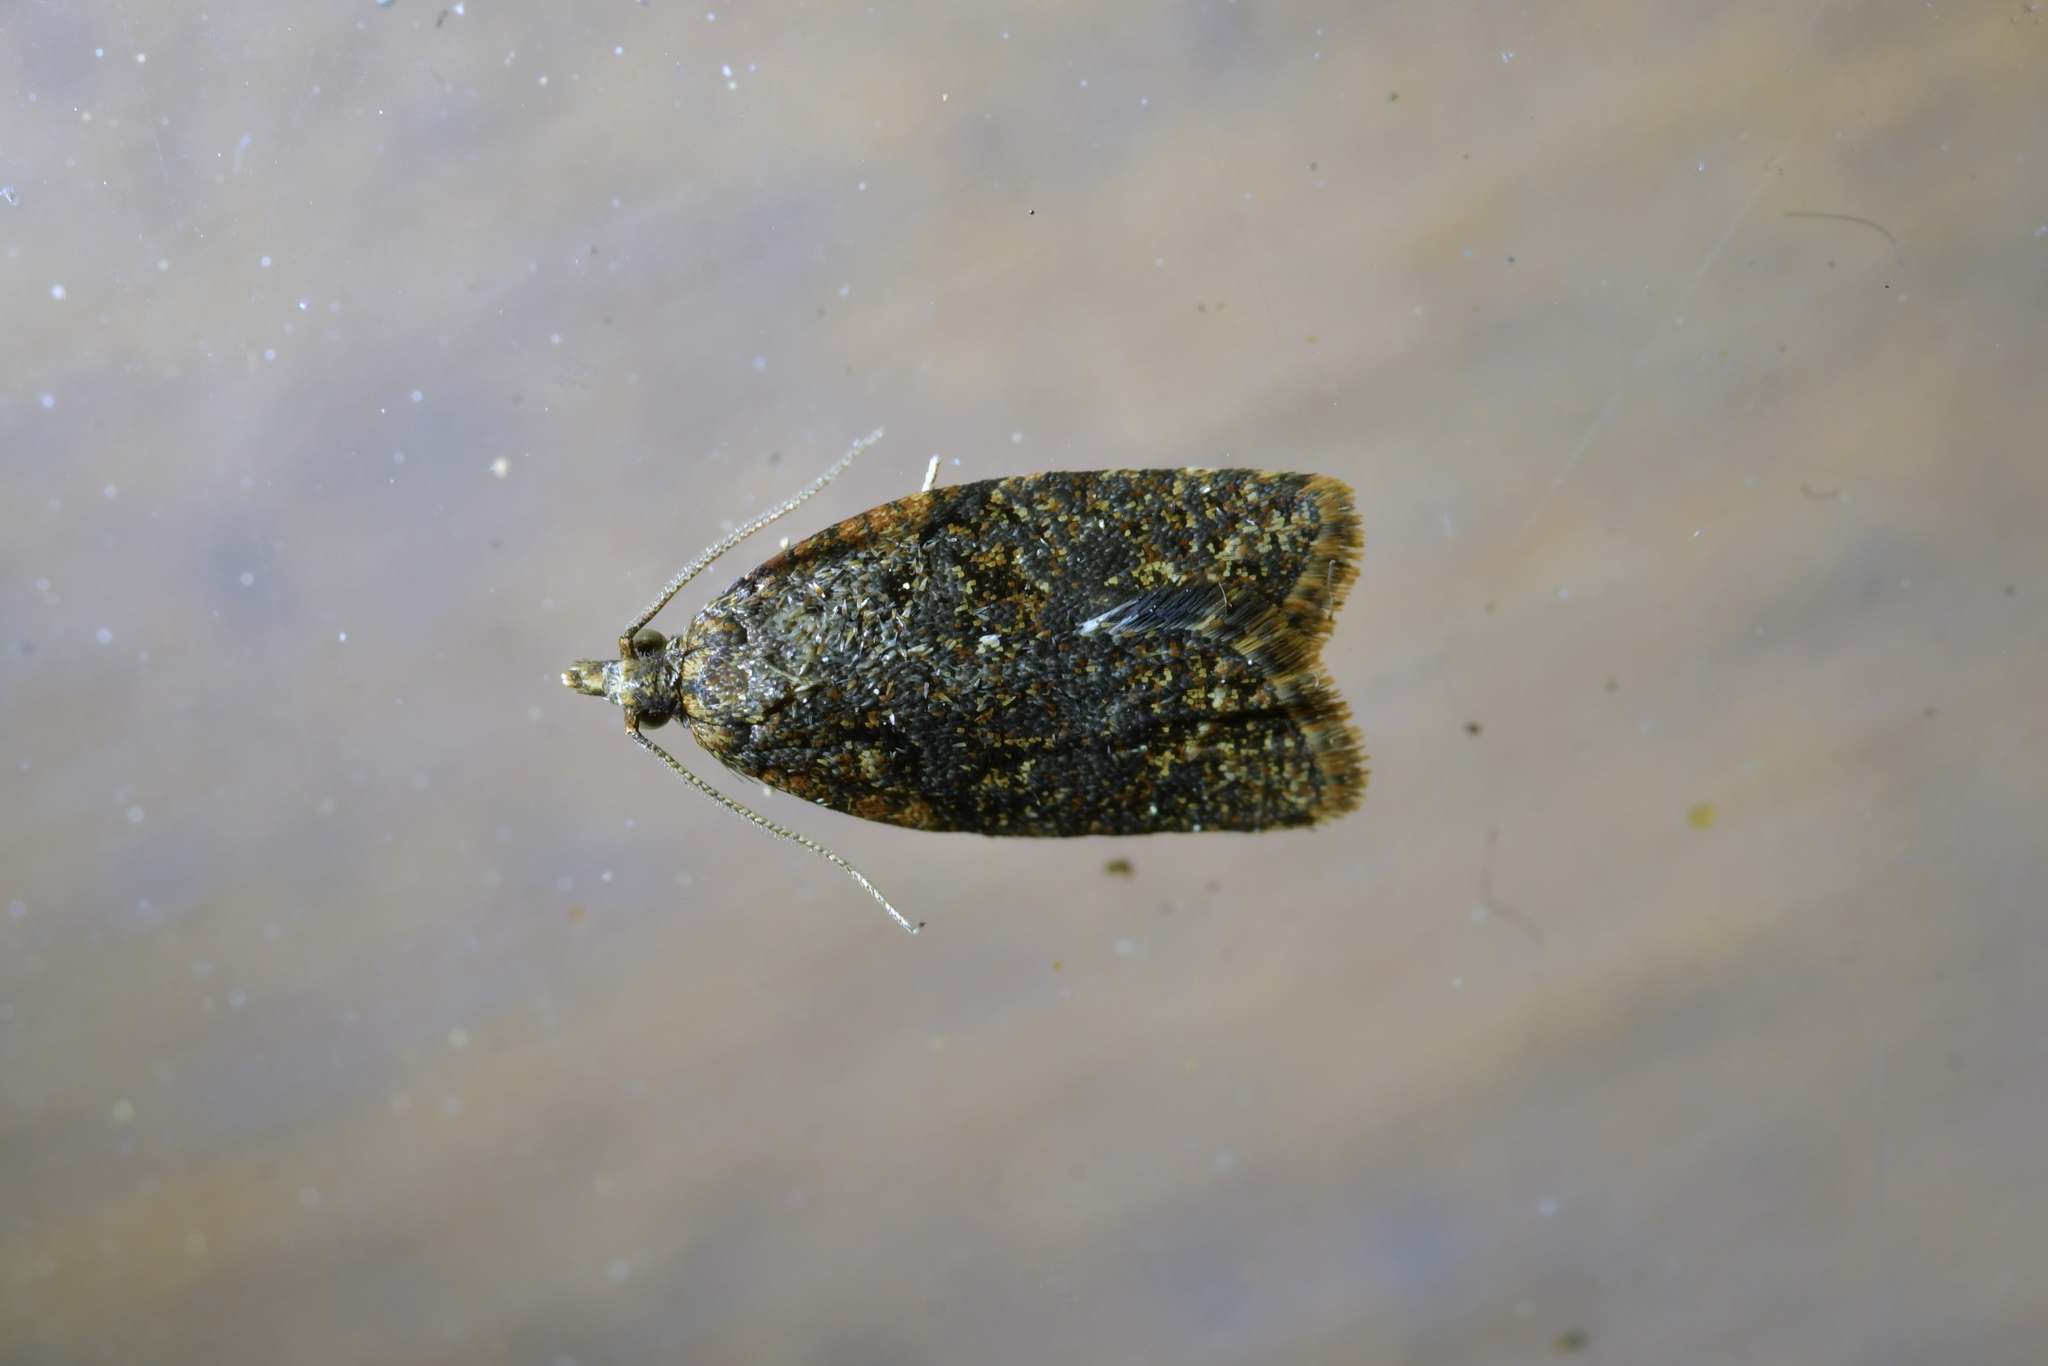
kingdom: Animalia
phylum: Arthropoda
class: Insecta
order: Lepidoptera
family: Tortricidae
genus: Capua
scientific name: Capua intractana
